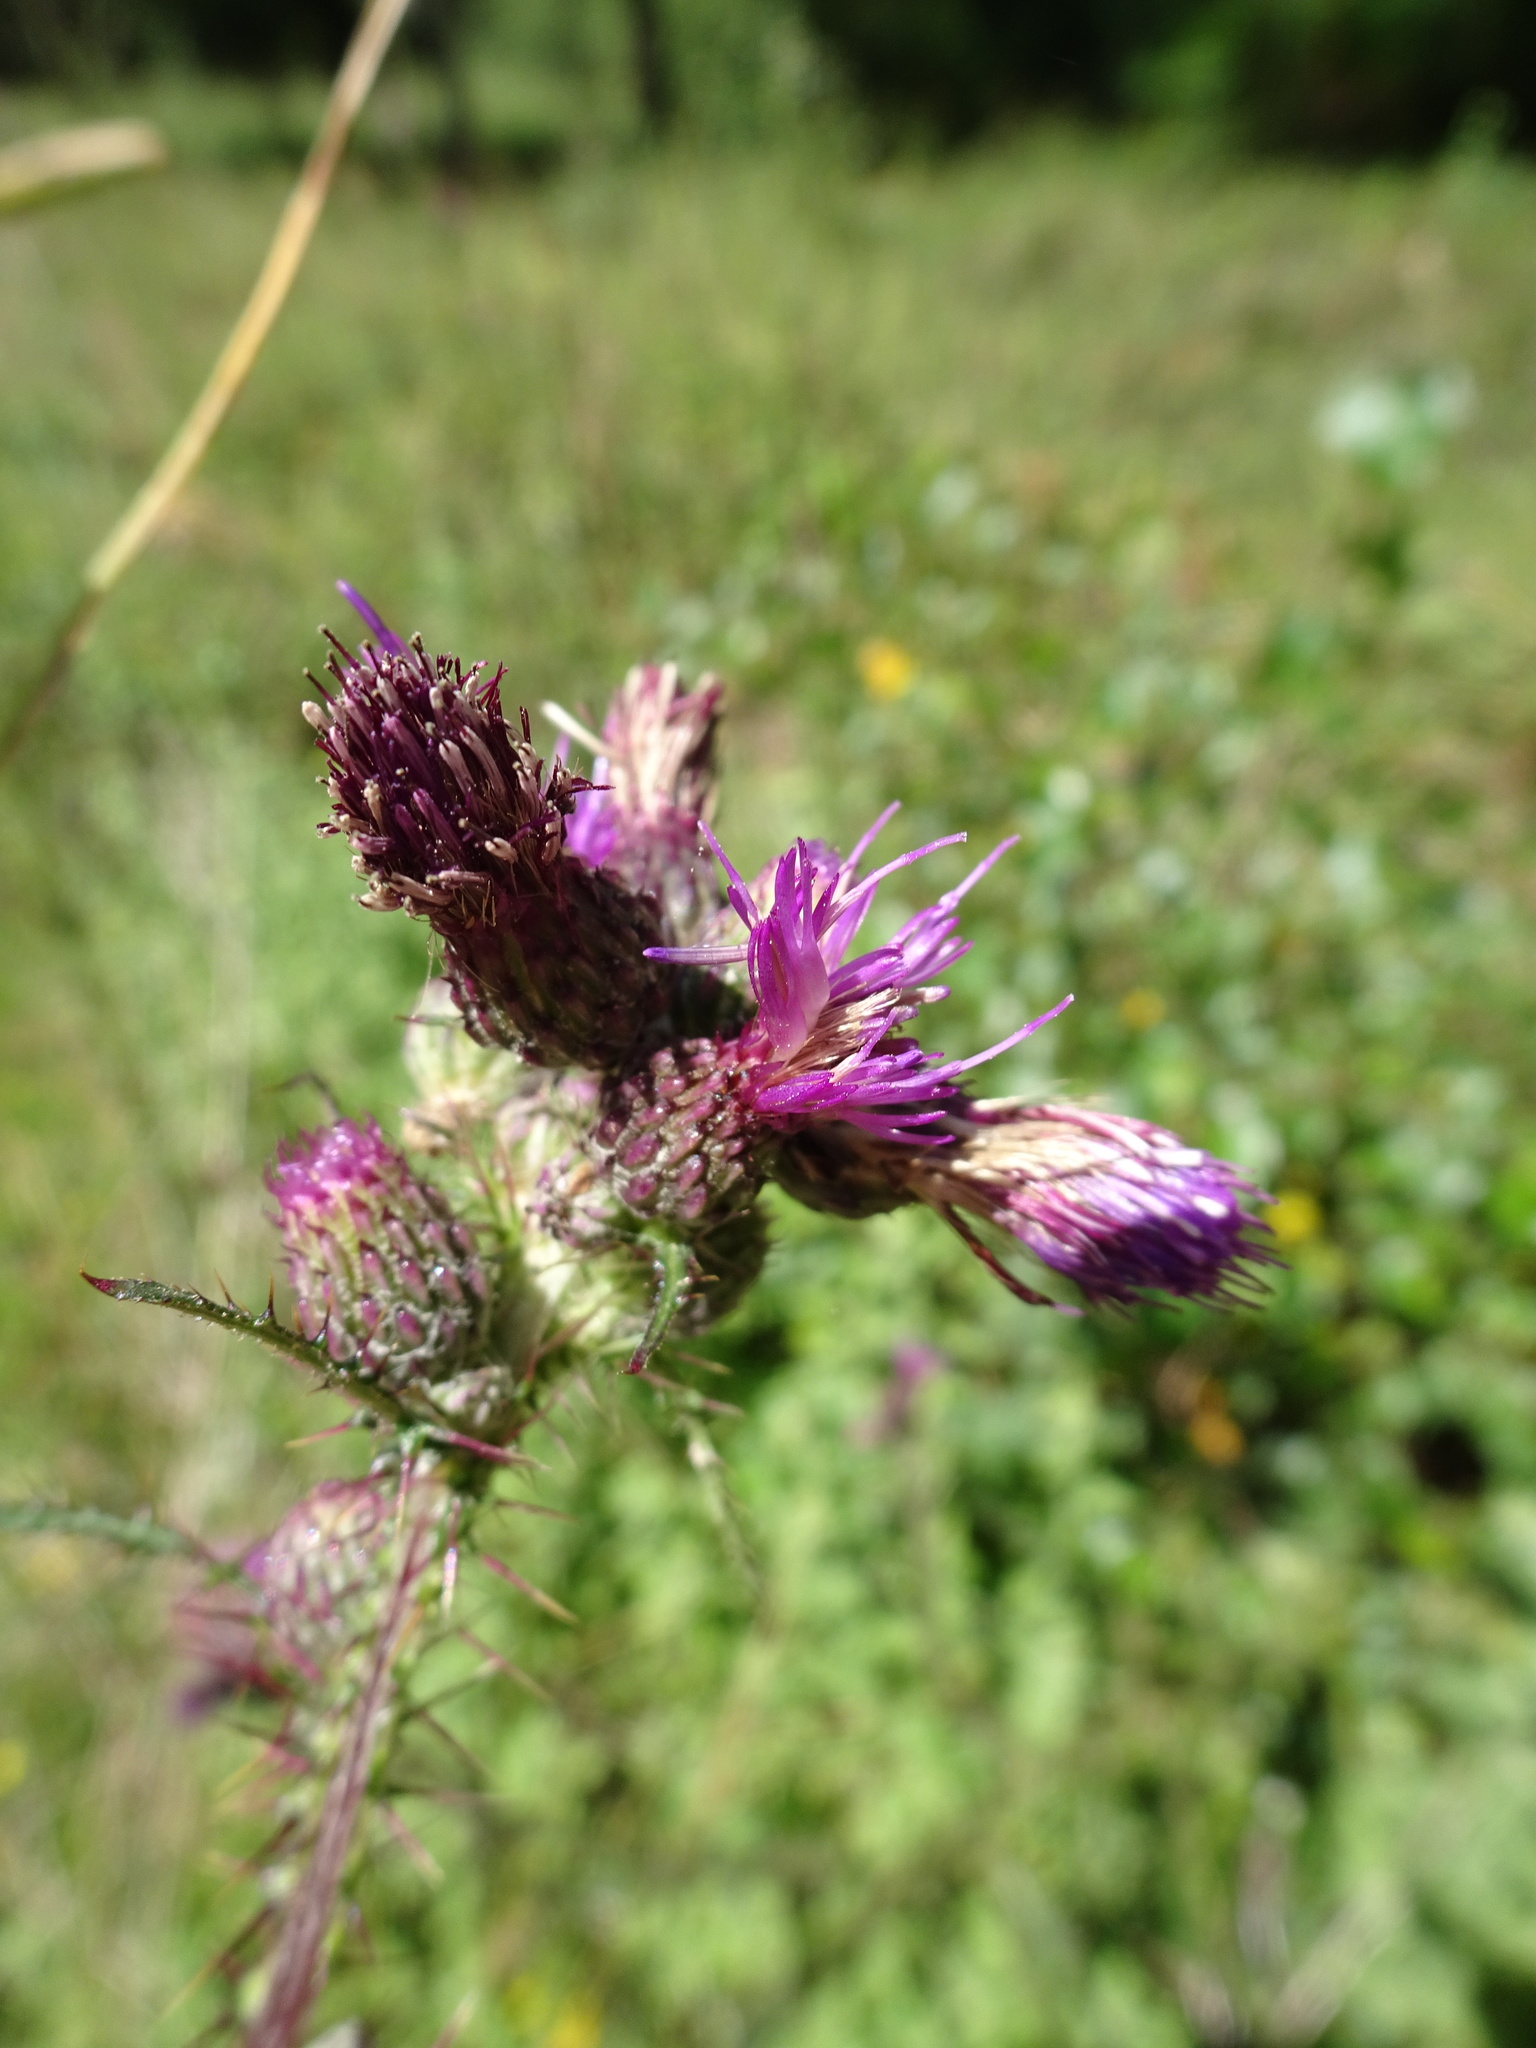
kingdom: Plantae
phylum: Tracheophyta
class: Magnoliopsida
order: Asterales
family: Asteraceae
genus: Cirsium
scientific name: Cirsium palustre
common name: Marsh thistle
